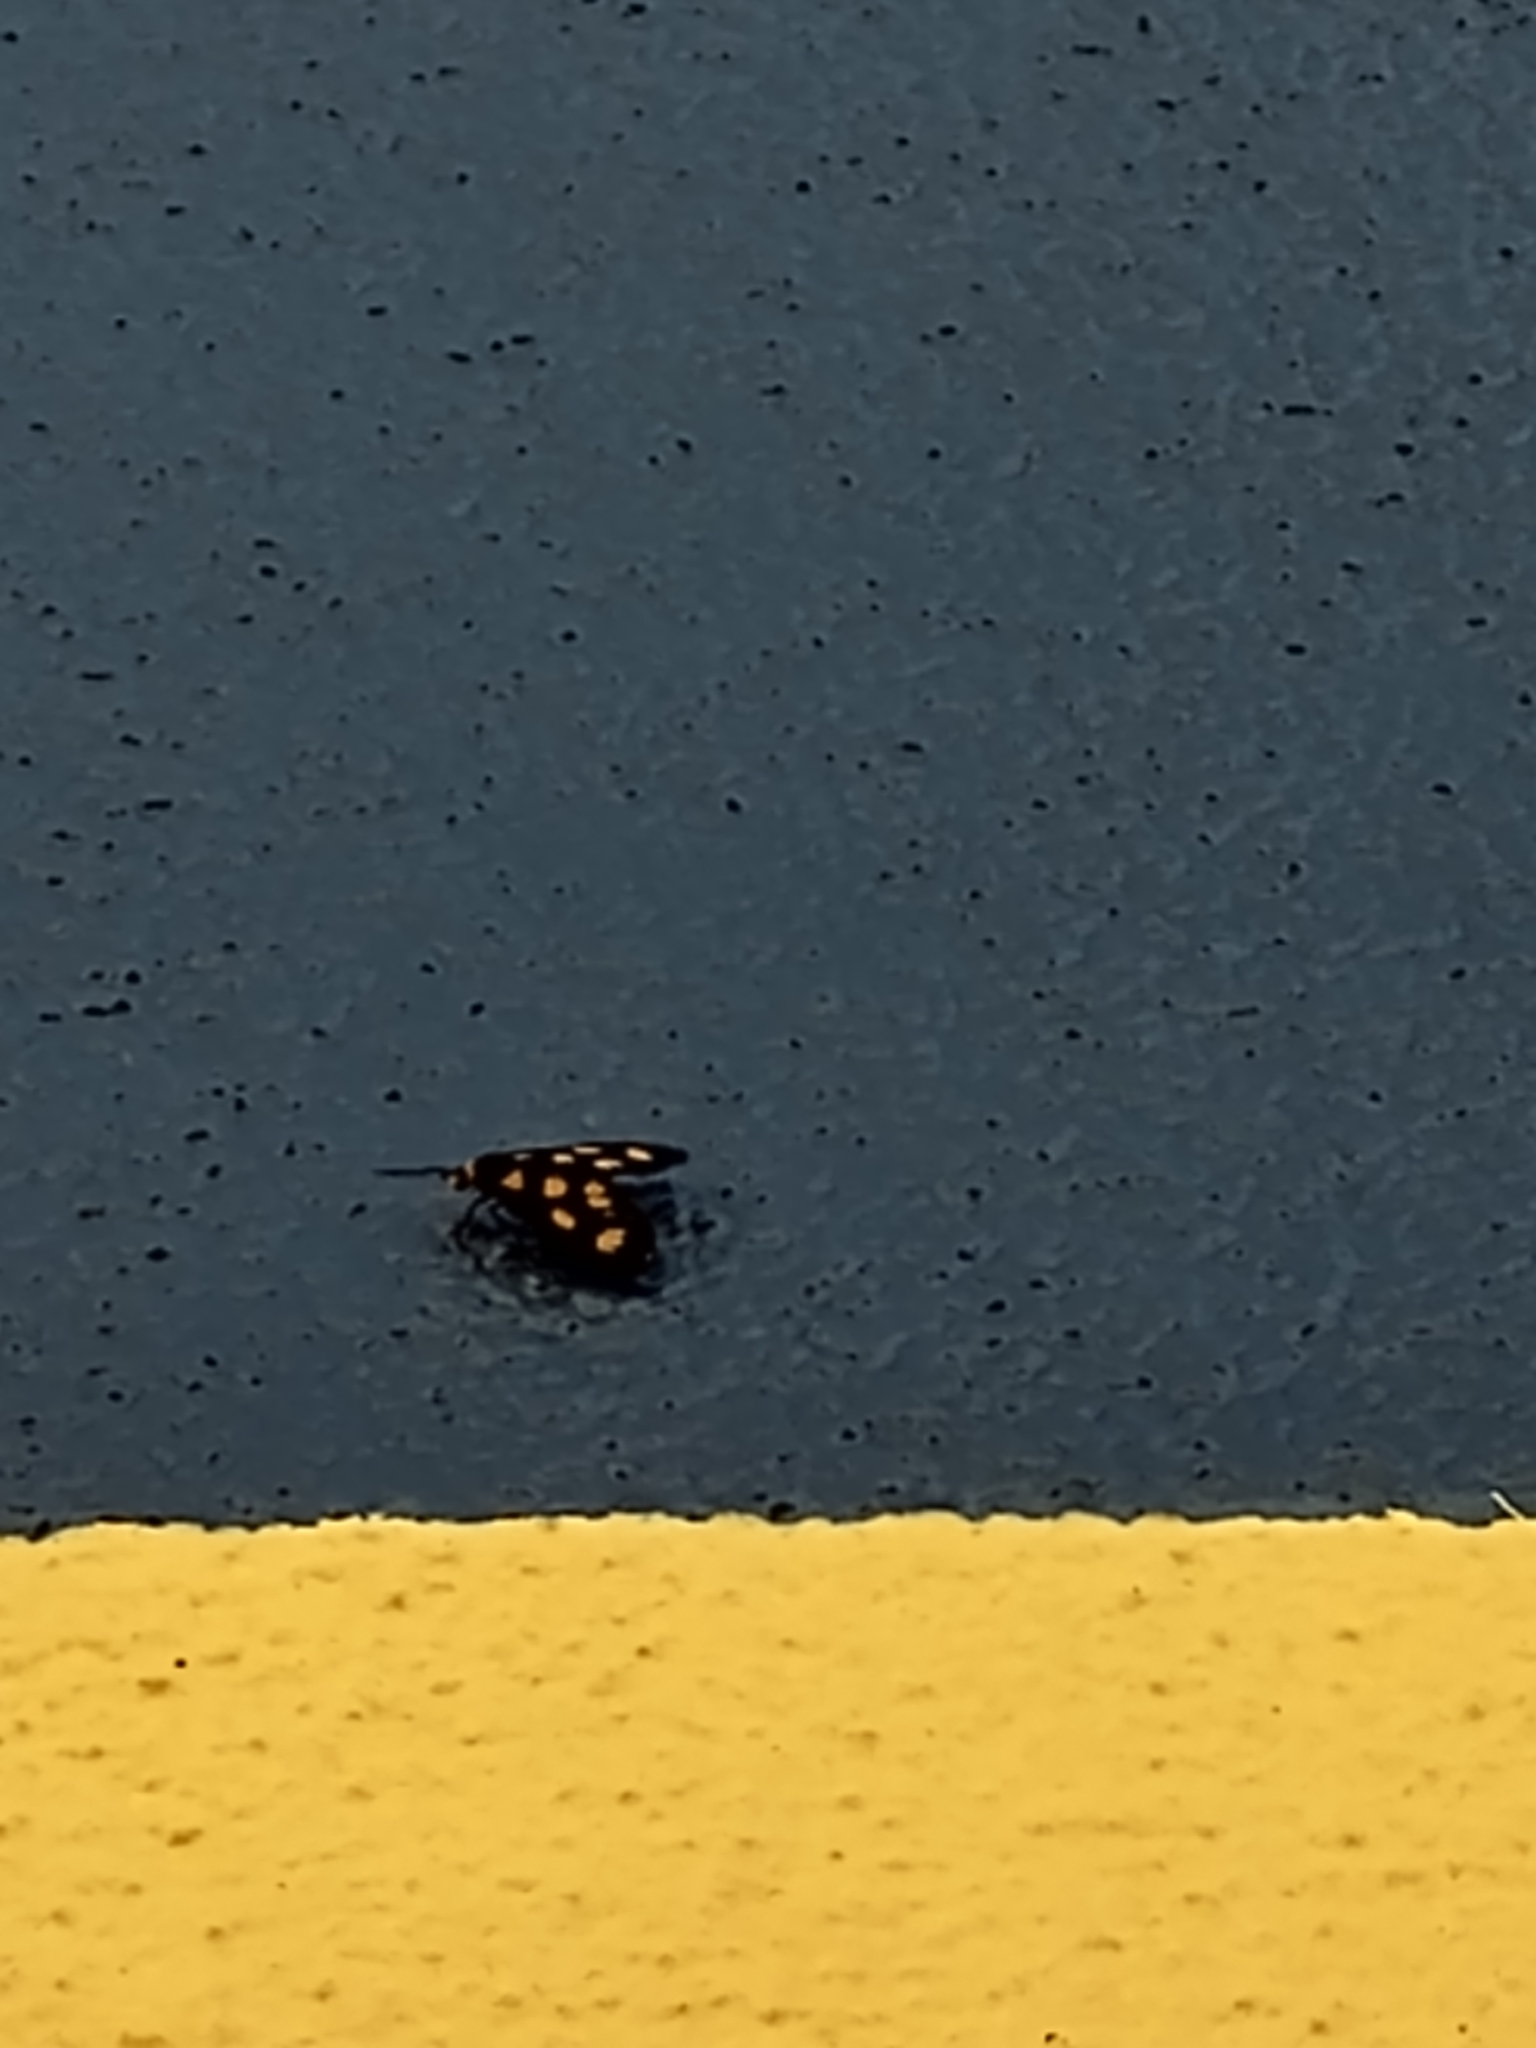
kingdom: Animalia
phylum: Arthropoda
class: Insecta
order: Lepidoptera
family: Erebidae
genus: Asura
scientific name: Asura cervicalis
